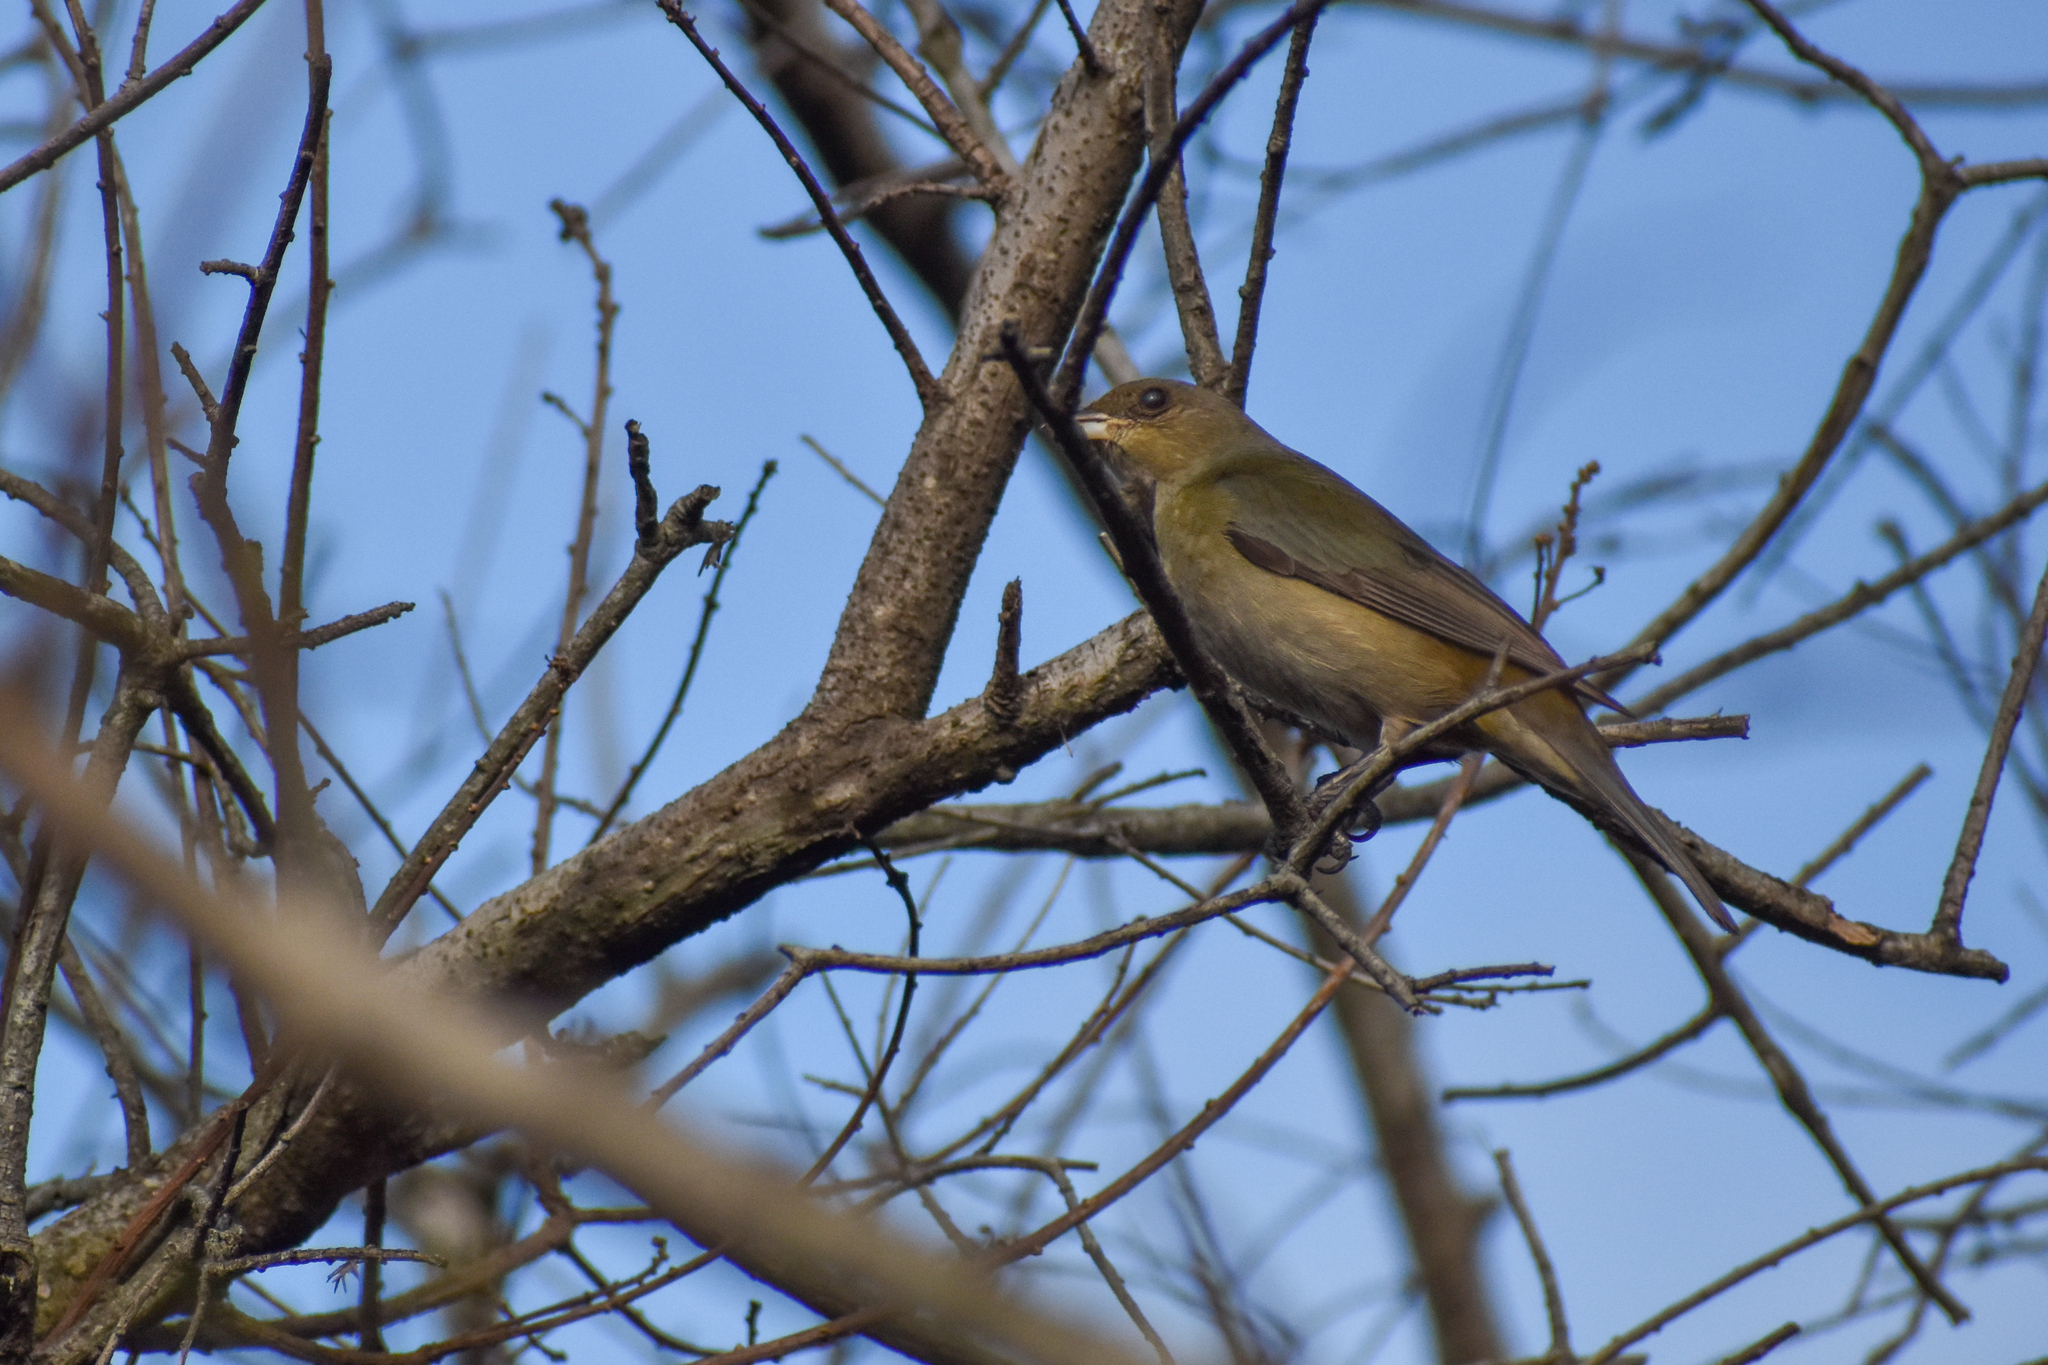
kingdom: Animalia
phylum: Chordata
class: Aves
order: Passeriformes
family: Thraupidae
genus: Rauenia
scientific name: Rauenia bonariensis
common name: Blue-and-yellow tanager
